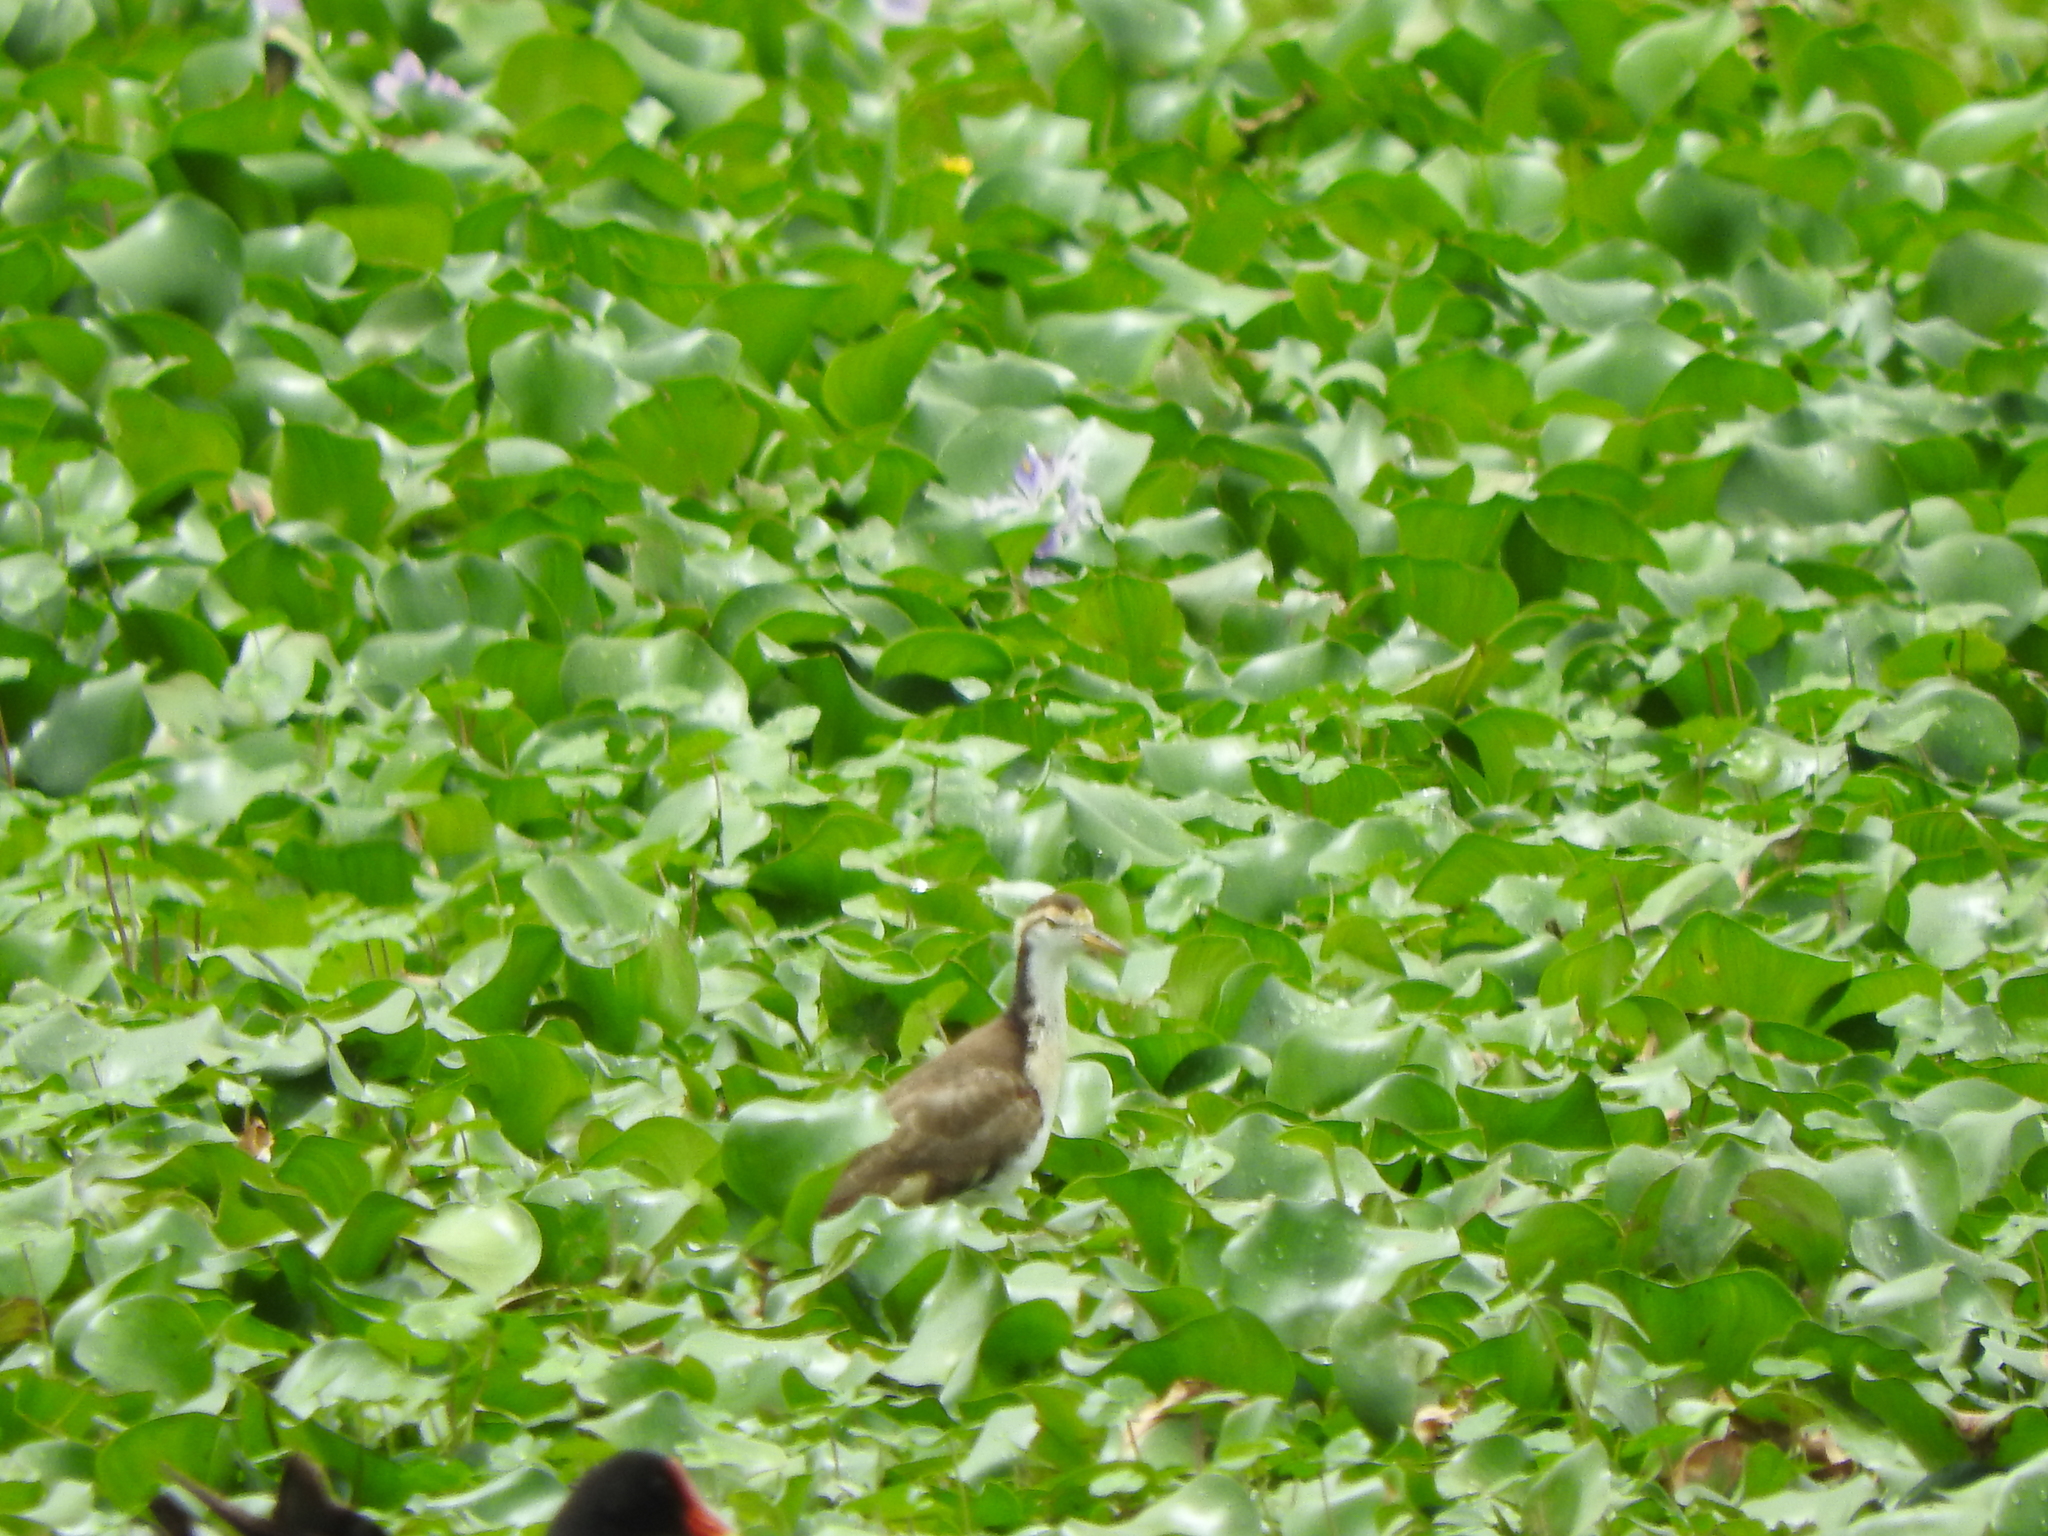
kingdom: Animalia
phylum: Chordata
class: Aves
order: Charadriiformes
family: Jacanidae
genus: Jacana
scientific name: Jacana spinosa
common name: Northern jacana
